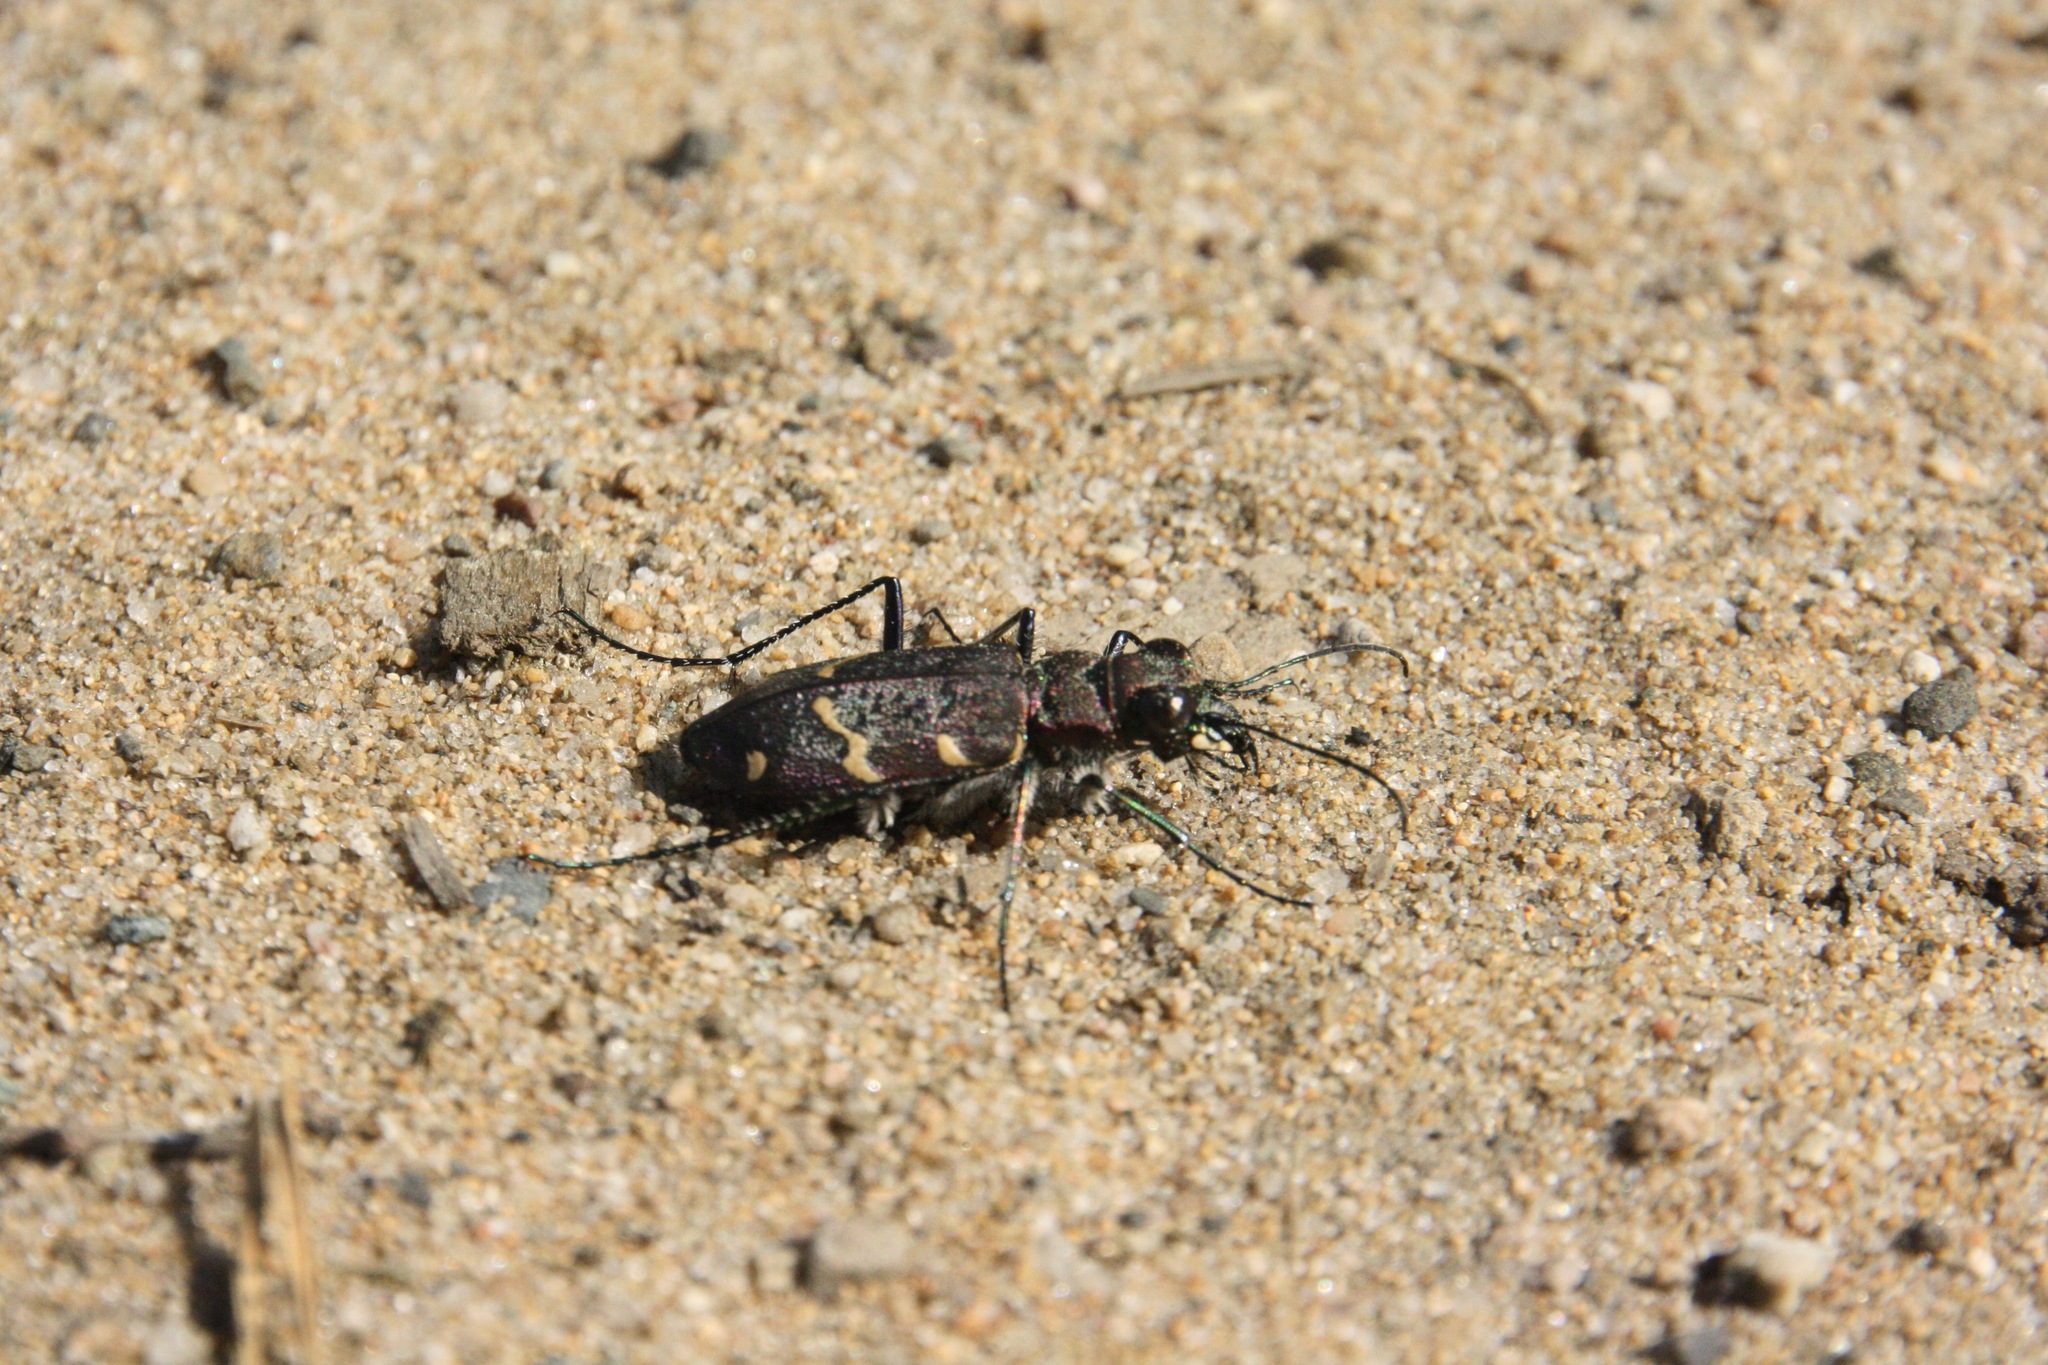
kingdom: Animalia
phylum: Arthropoda
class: Insecta
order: Coleoptera
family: Carabidae
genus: Cicindela
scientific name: Cicindela sylvatica
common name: Heath tiger beetle
